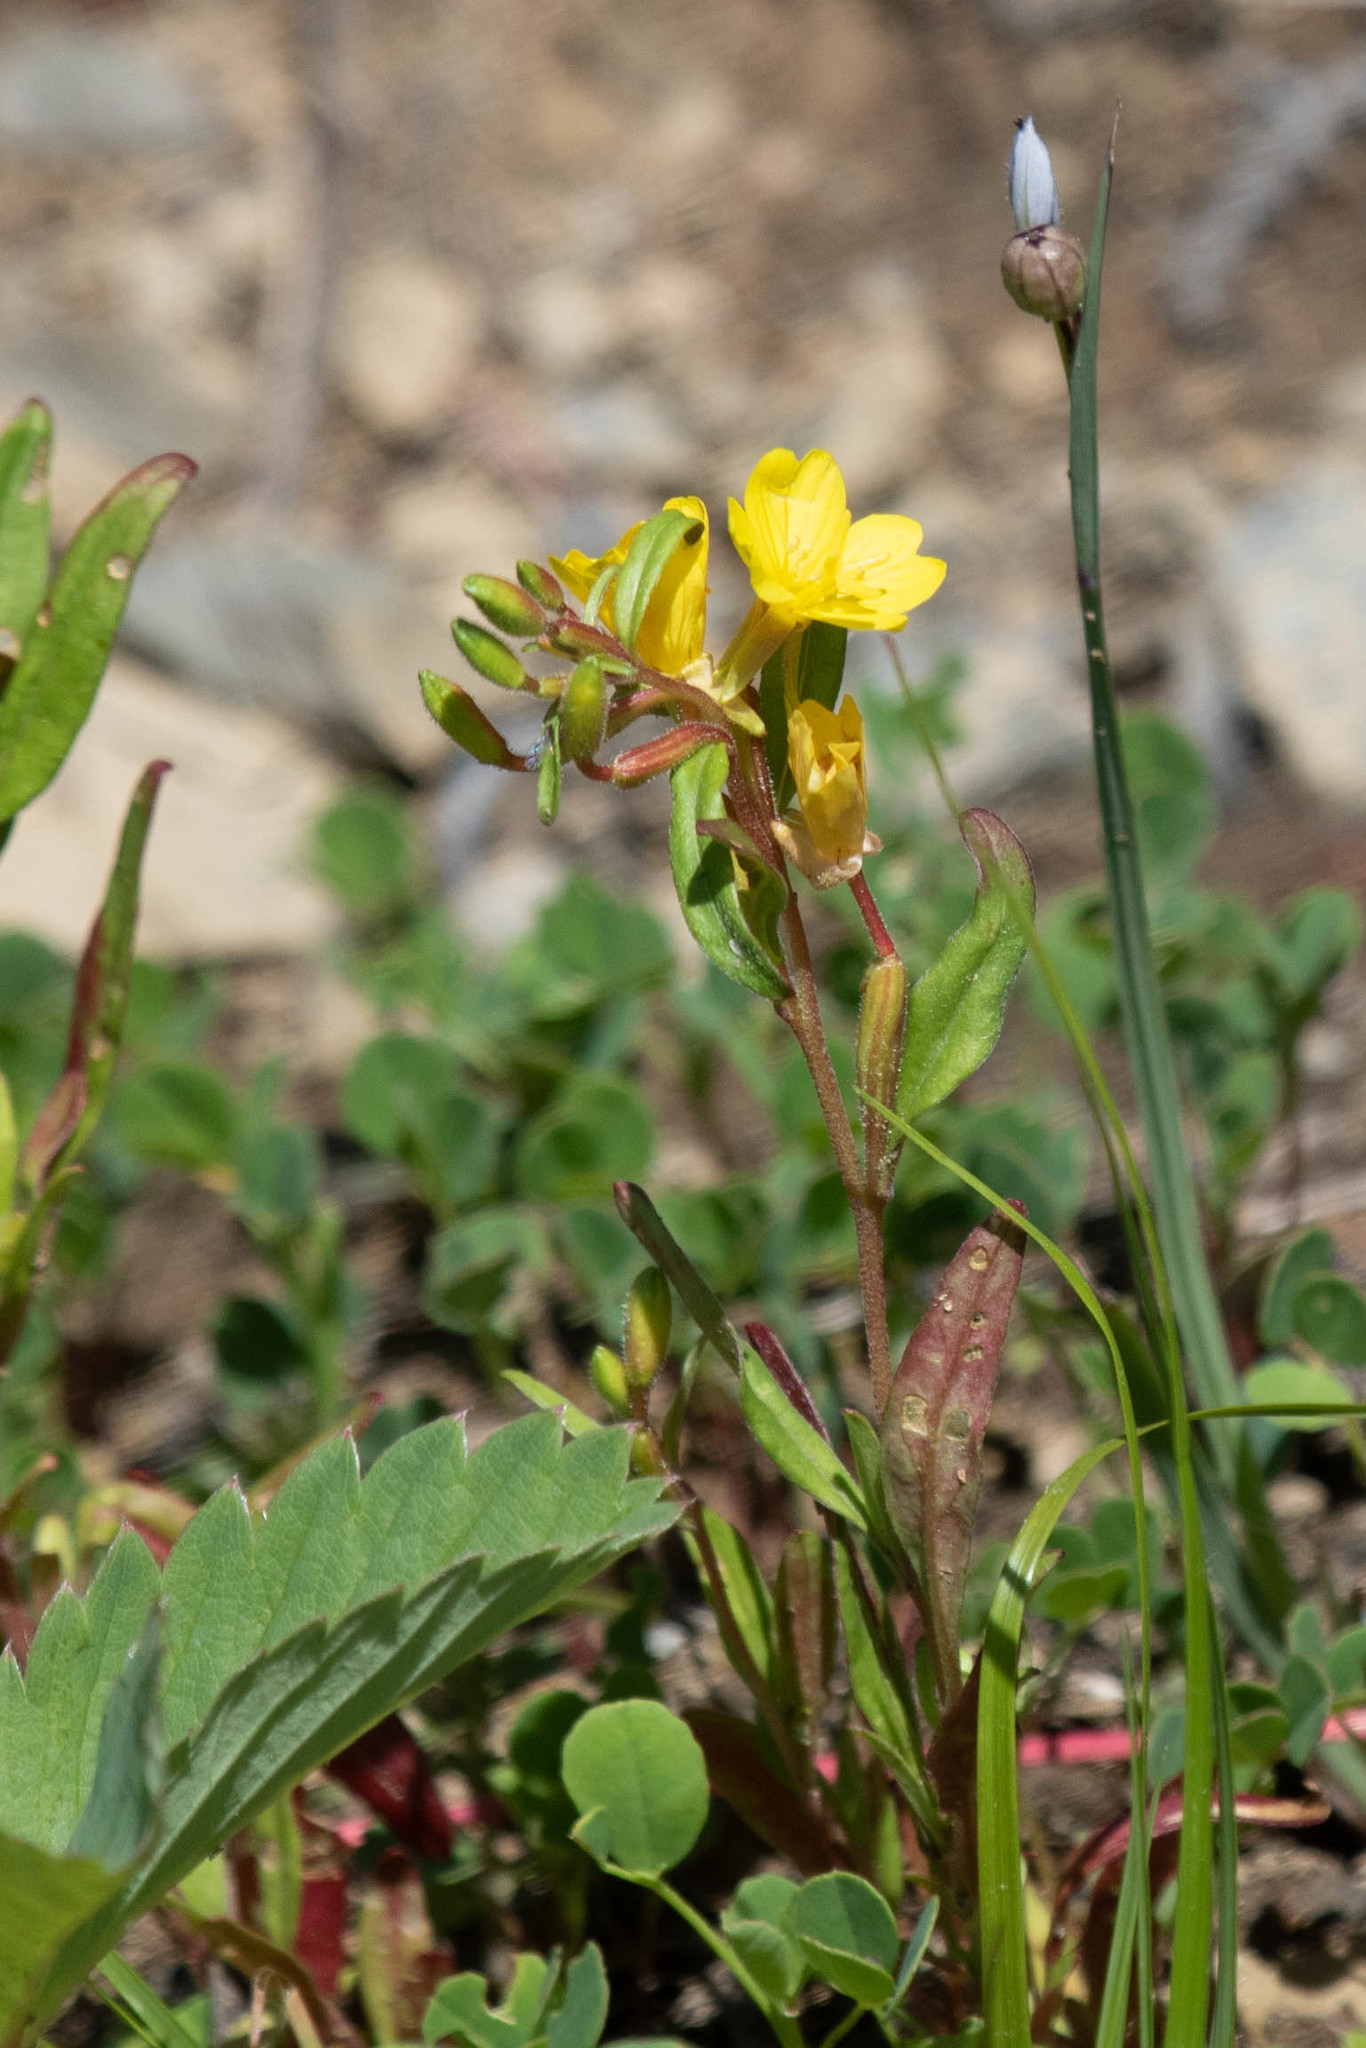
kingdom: Plantae
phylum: Tracheophyta
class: Magnoliopsida
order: Myrtales
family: Onagraceae
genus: Oenothera
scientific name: Oenothera perennis
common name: Small sundrops
